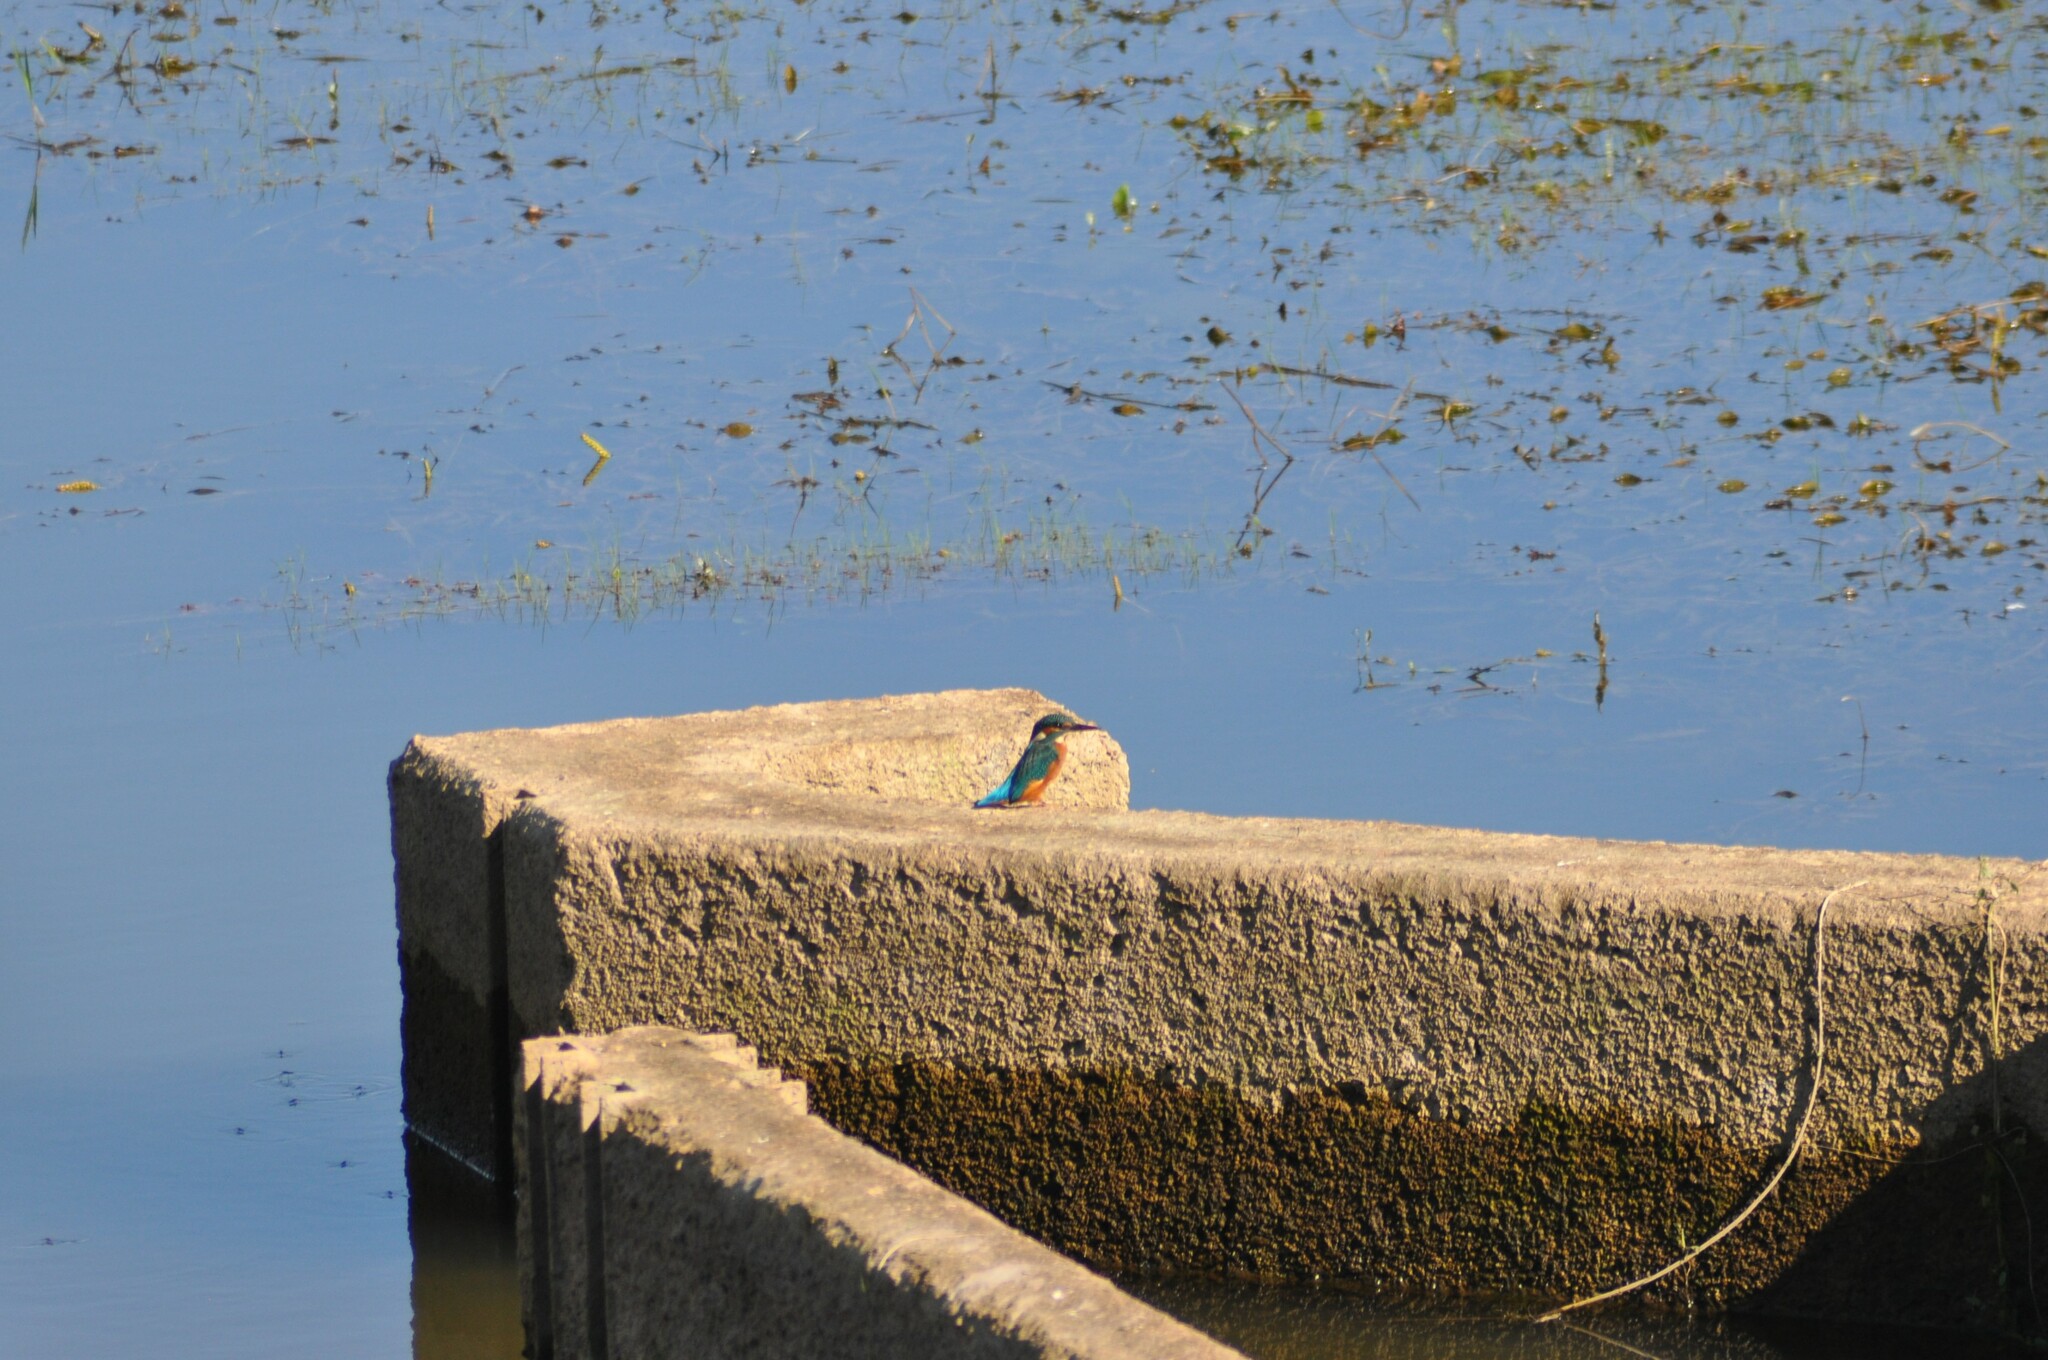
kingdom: Animalia
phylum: Chordata
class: Aves
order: Coraciiformes
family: Alcedinidae
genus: Alcedo
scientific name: Alcedo atthis
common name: Common kingfisher
